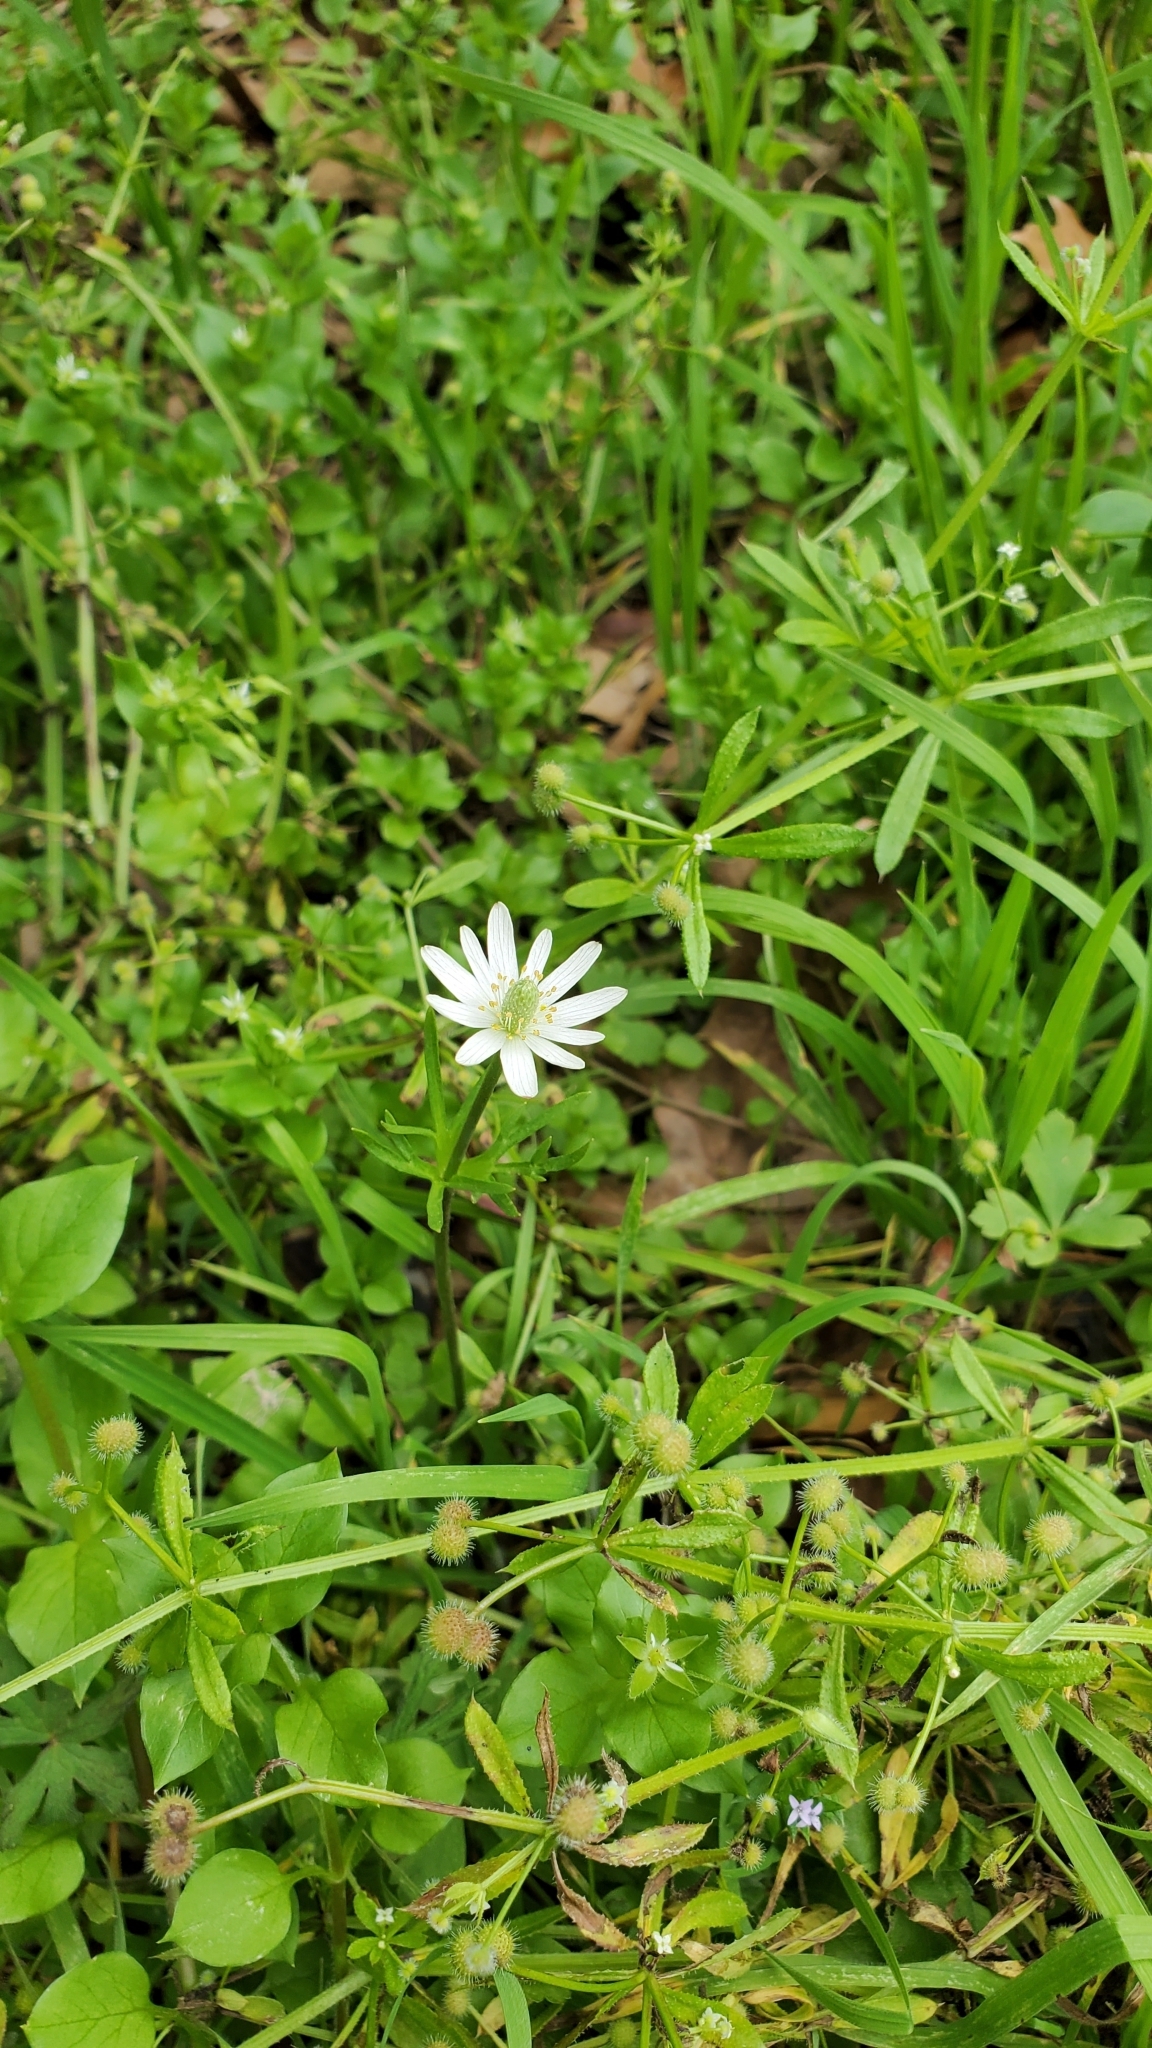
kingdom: Plantae
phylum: Tracheophyta
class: Magnoliopsida
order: Ranunculales
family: Ranunculaceae
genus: Anemone
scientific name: Anemone berlandieri
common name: Ten-petal anemone
